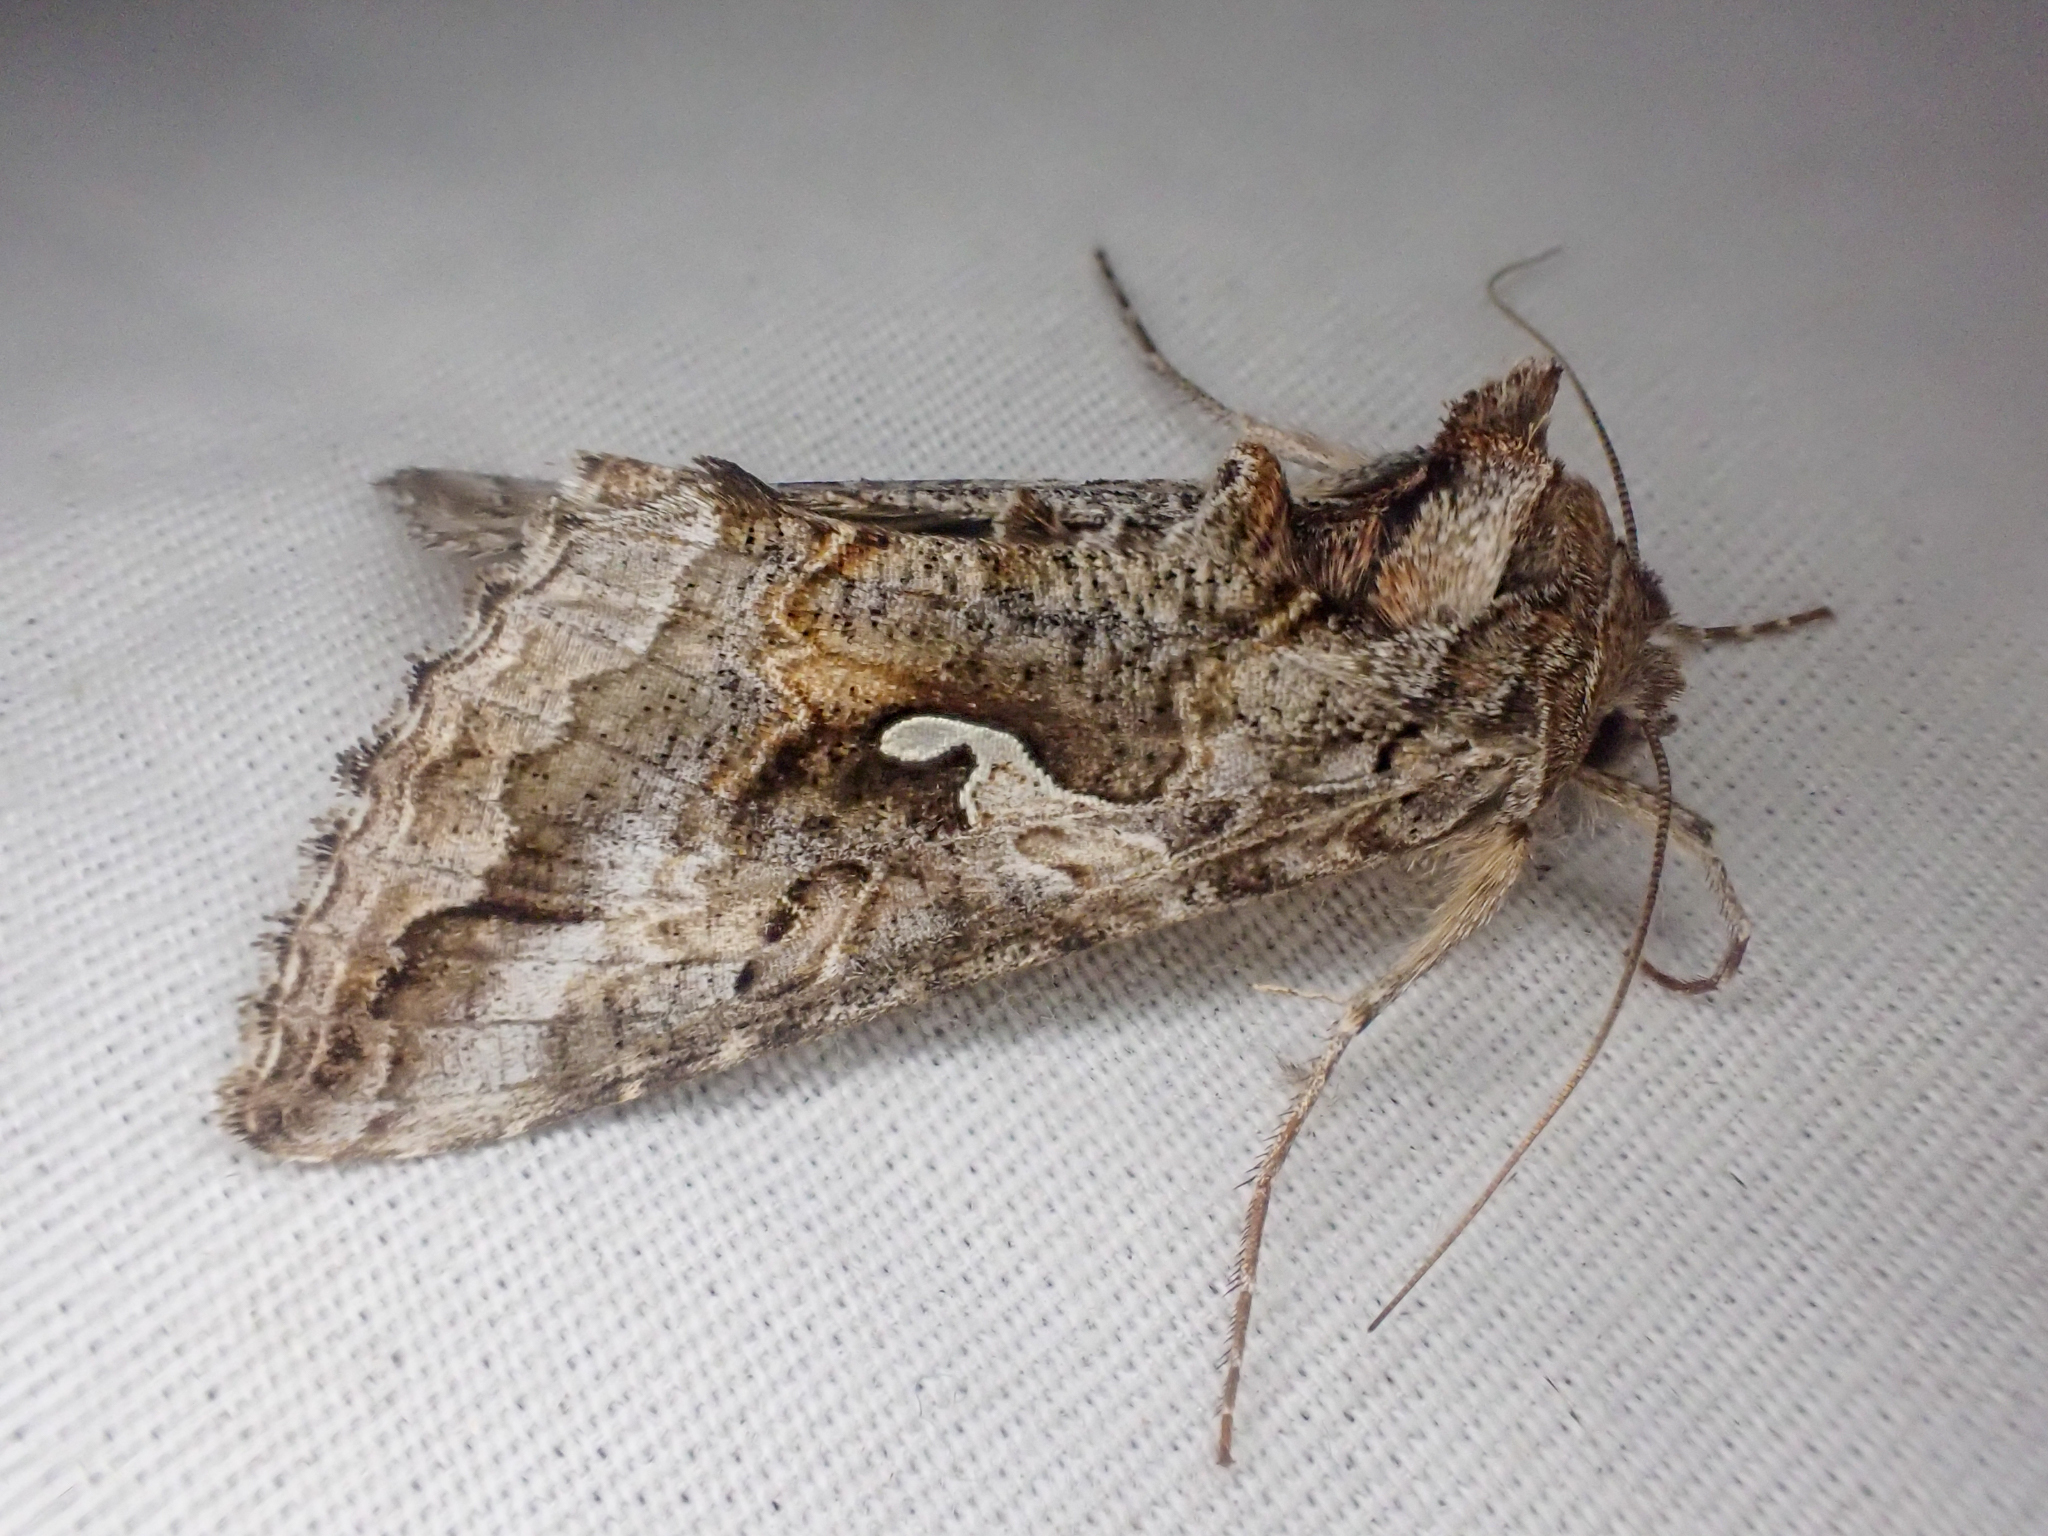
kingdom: Animalia
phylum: Arthropoda
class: Insecta
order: Lepidoptera
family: Noctuidae
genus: Autographa
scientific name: Autographa californica
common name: Alfalfa looper
